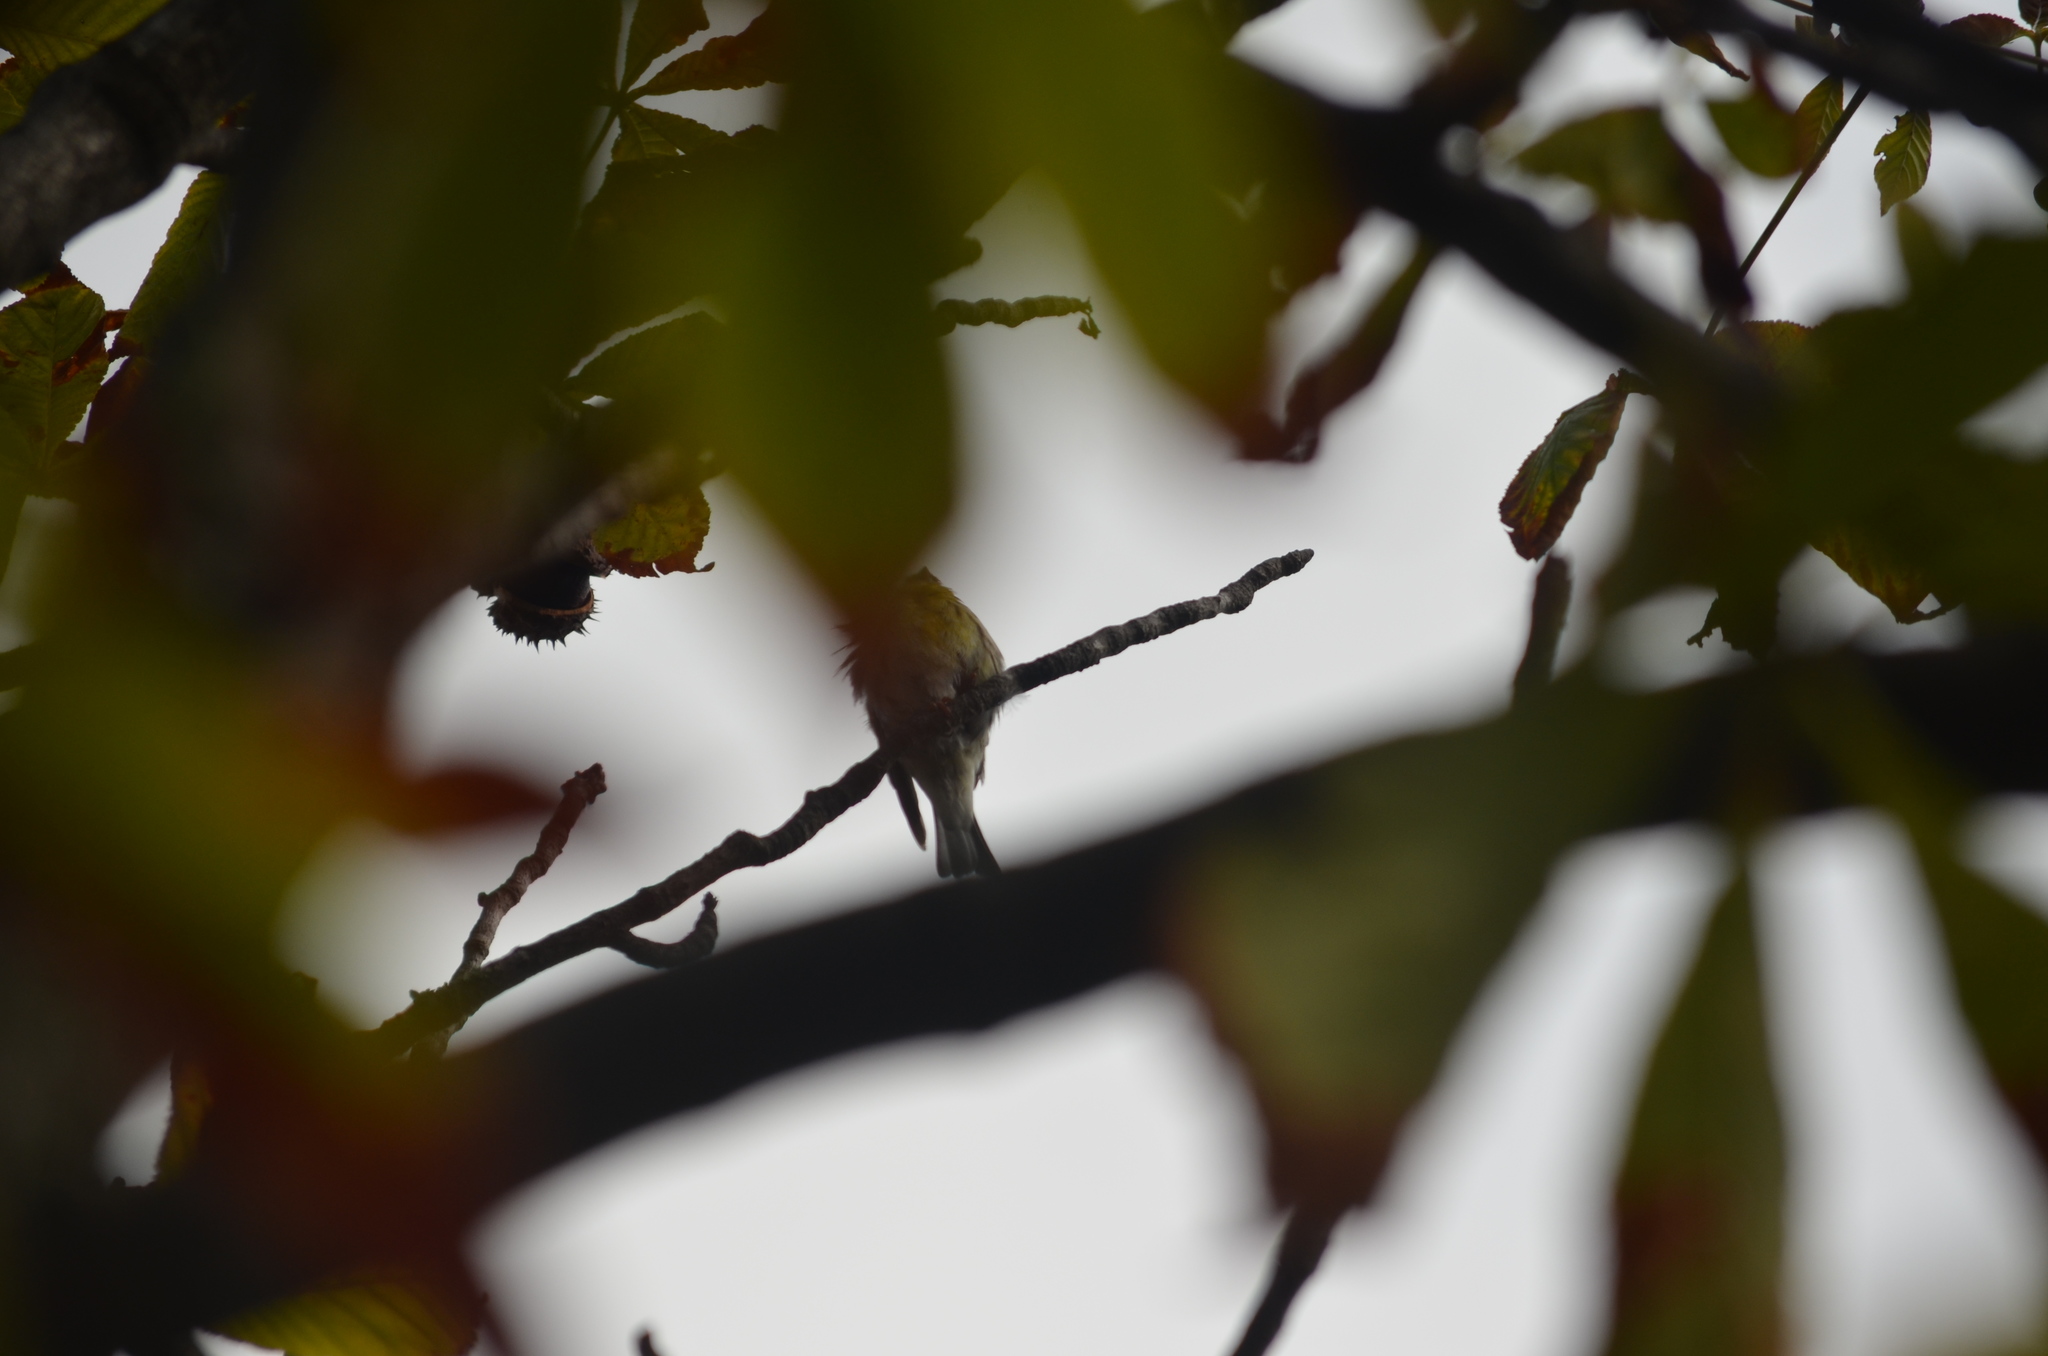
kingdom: Animalia
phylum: Chordata
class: Aves
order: Passeriformes
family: Fringillidae
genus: Serinus
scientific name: Serinus serinus
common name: European serin
